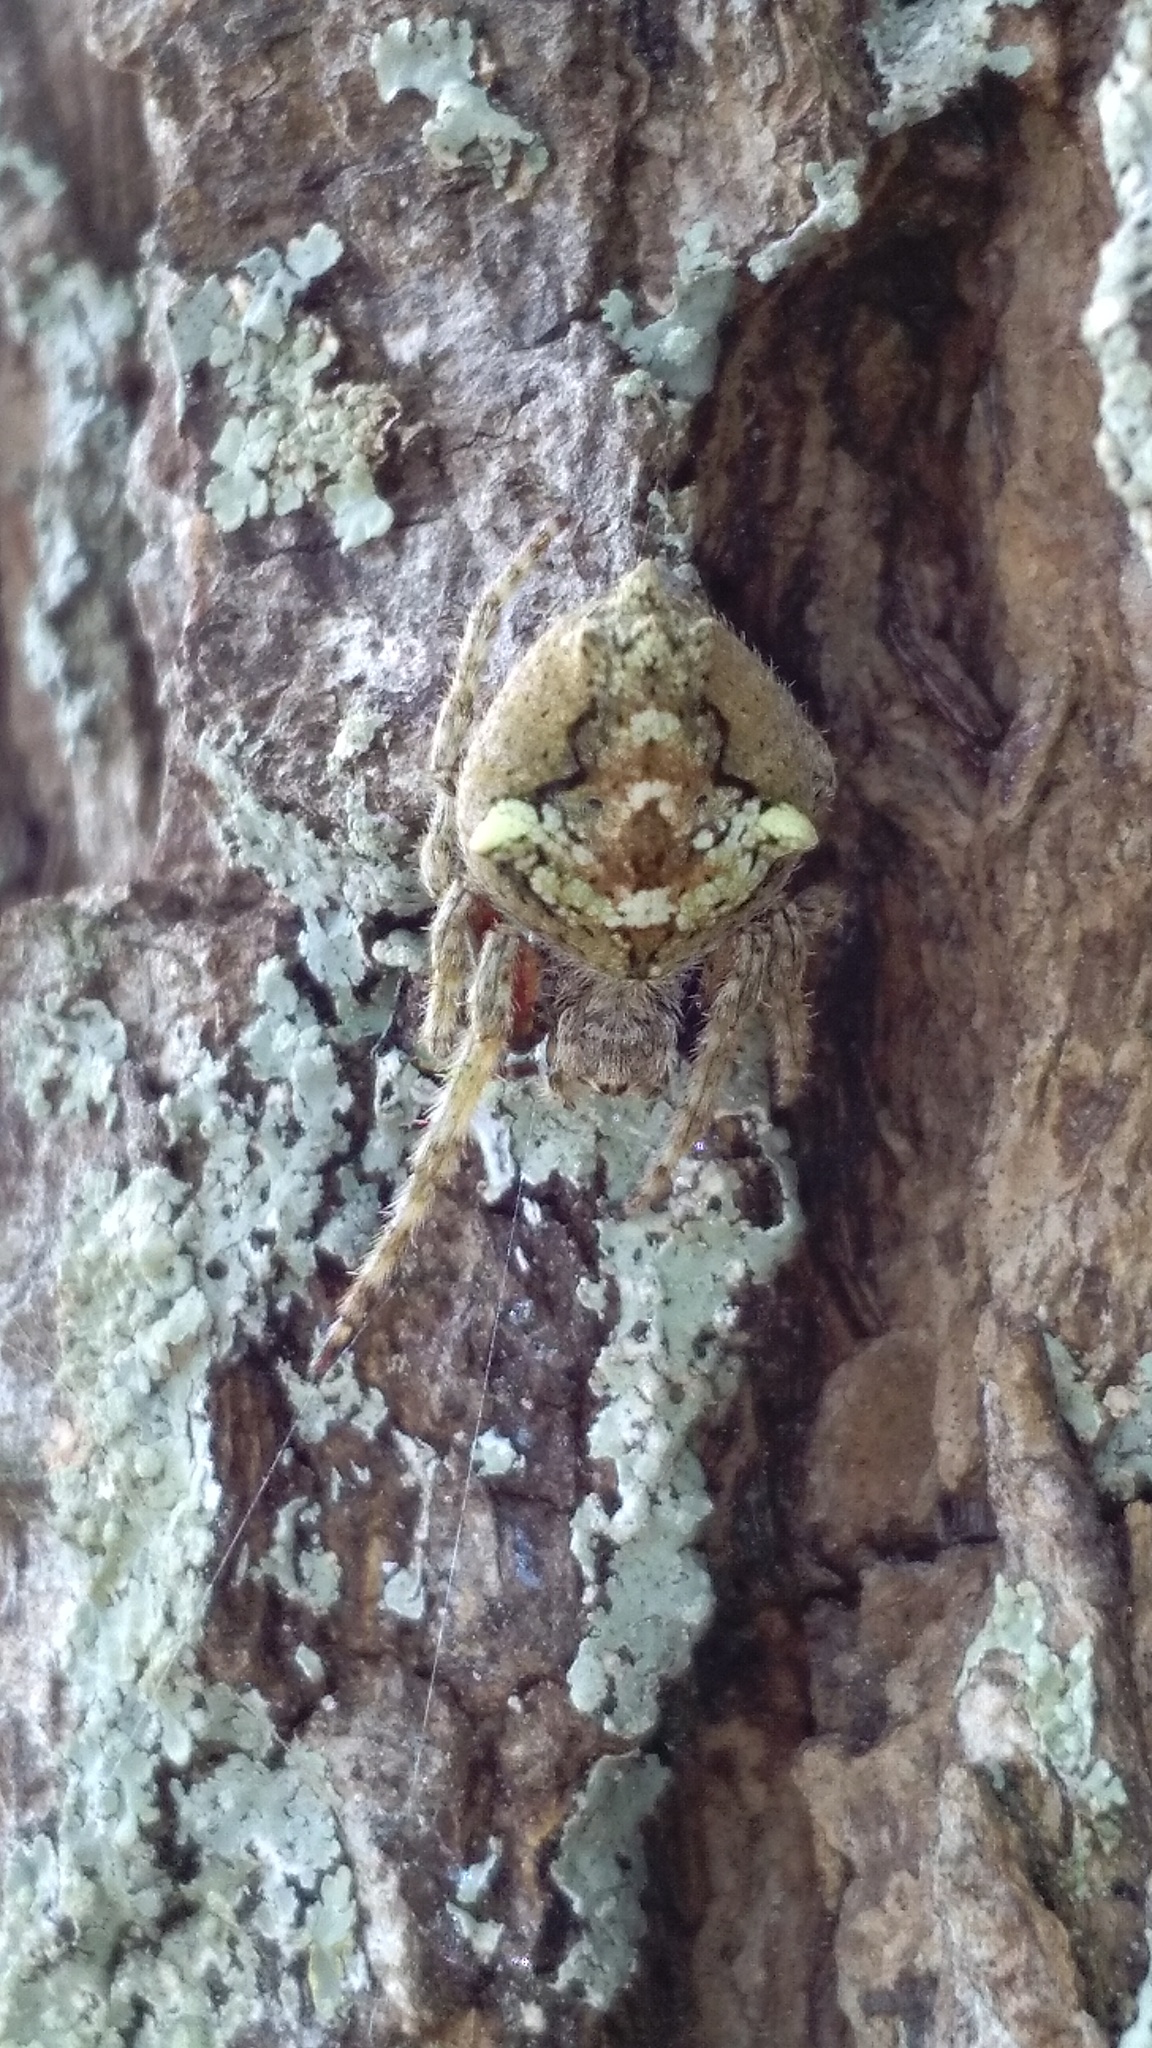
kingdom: Animalia
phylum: Arthropoda
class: Arachnida
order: Araneae
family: Araneidae
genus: Eriophora
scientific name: Eriophora pustulosa
